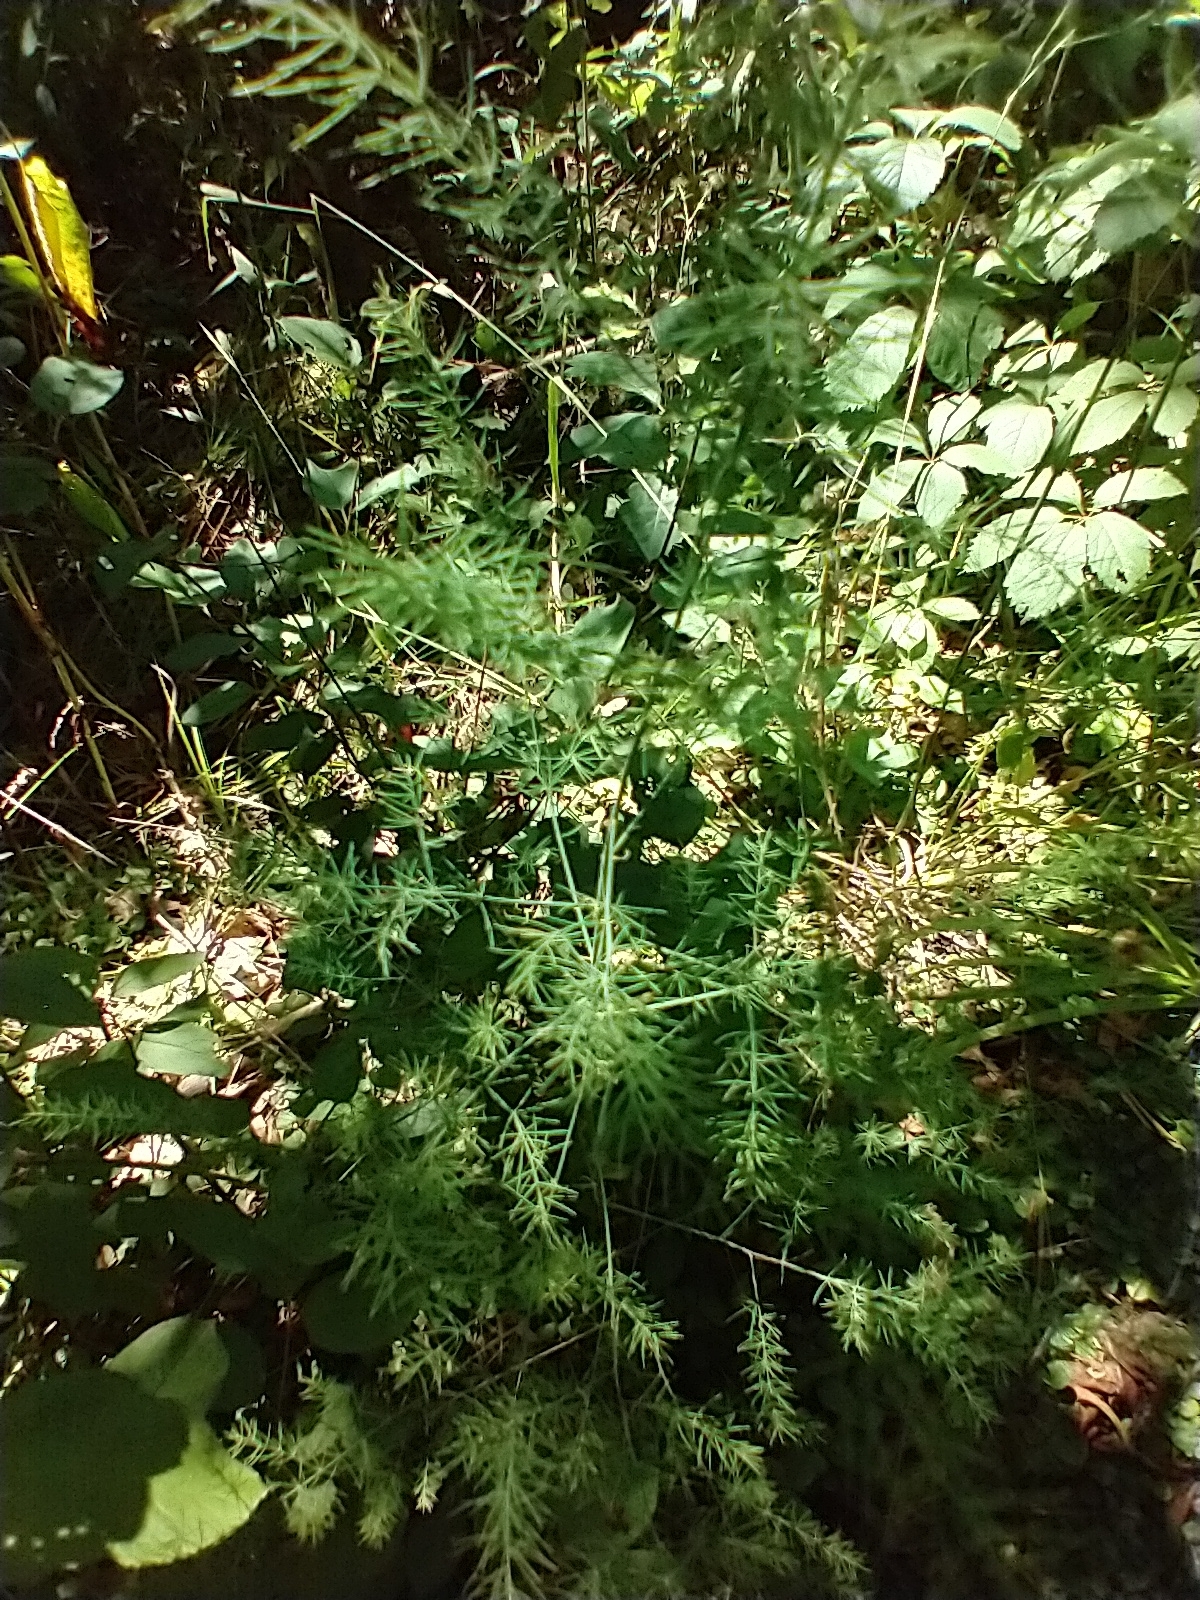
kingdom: Plantae
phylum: Tracheophyta
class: Liliopsida
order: Asparagales
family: Asparagaceae
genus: Asparagus
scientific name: Asparagus officinalis
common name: Garden asparagus
